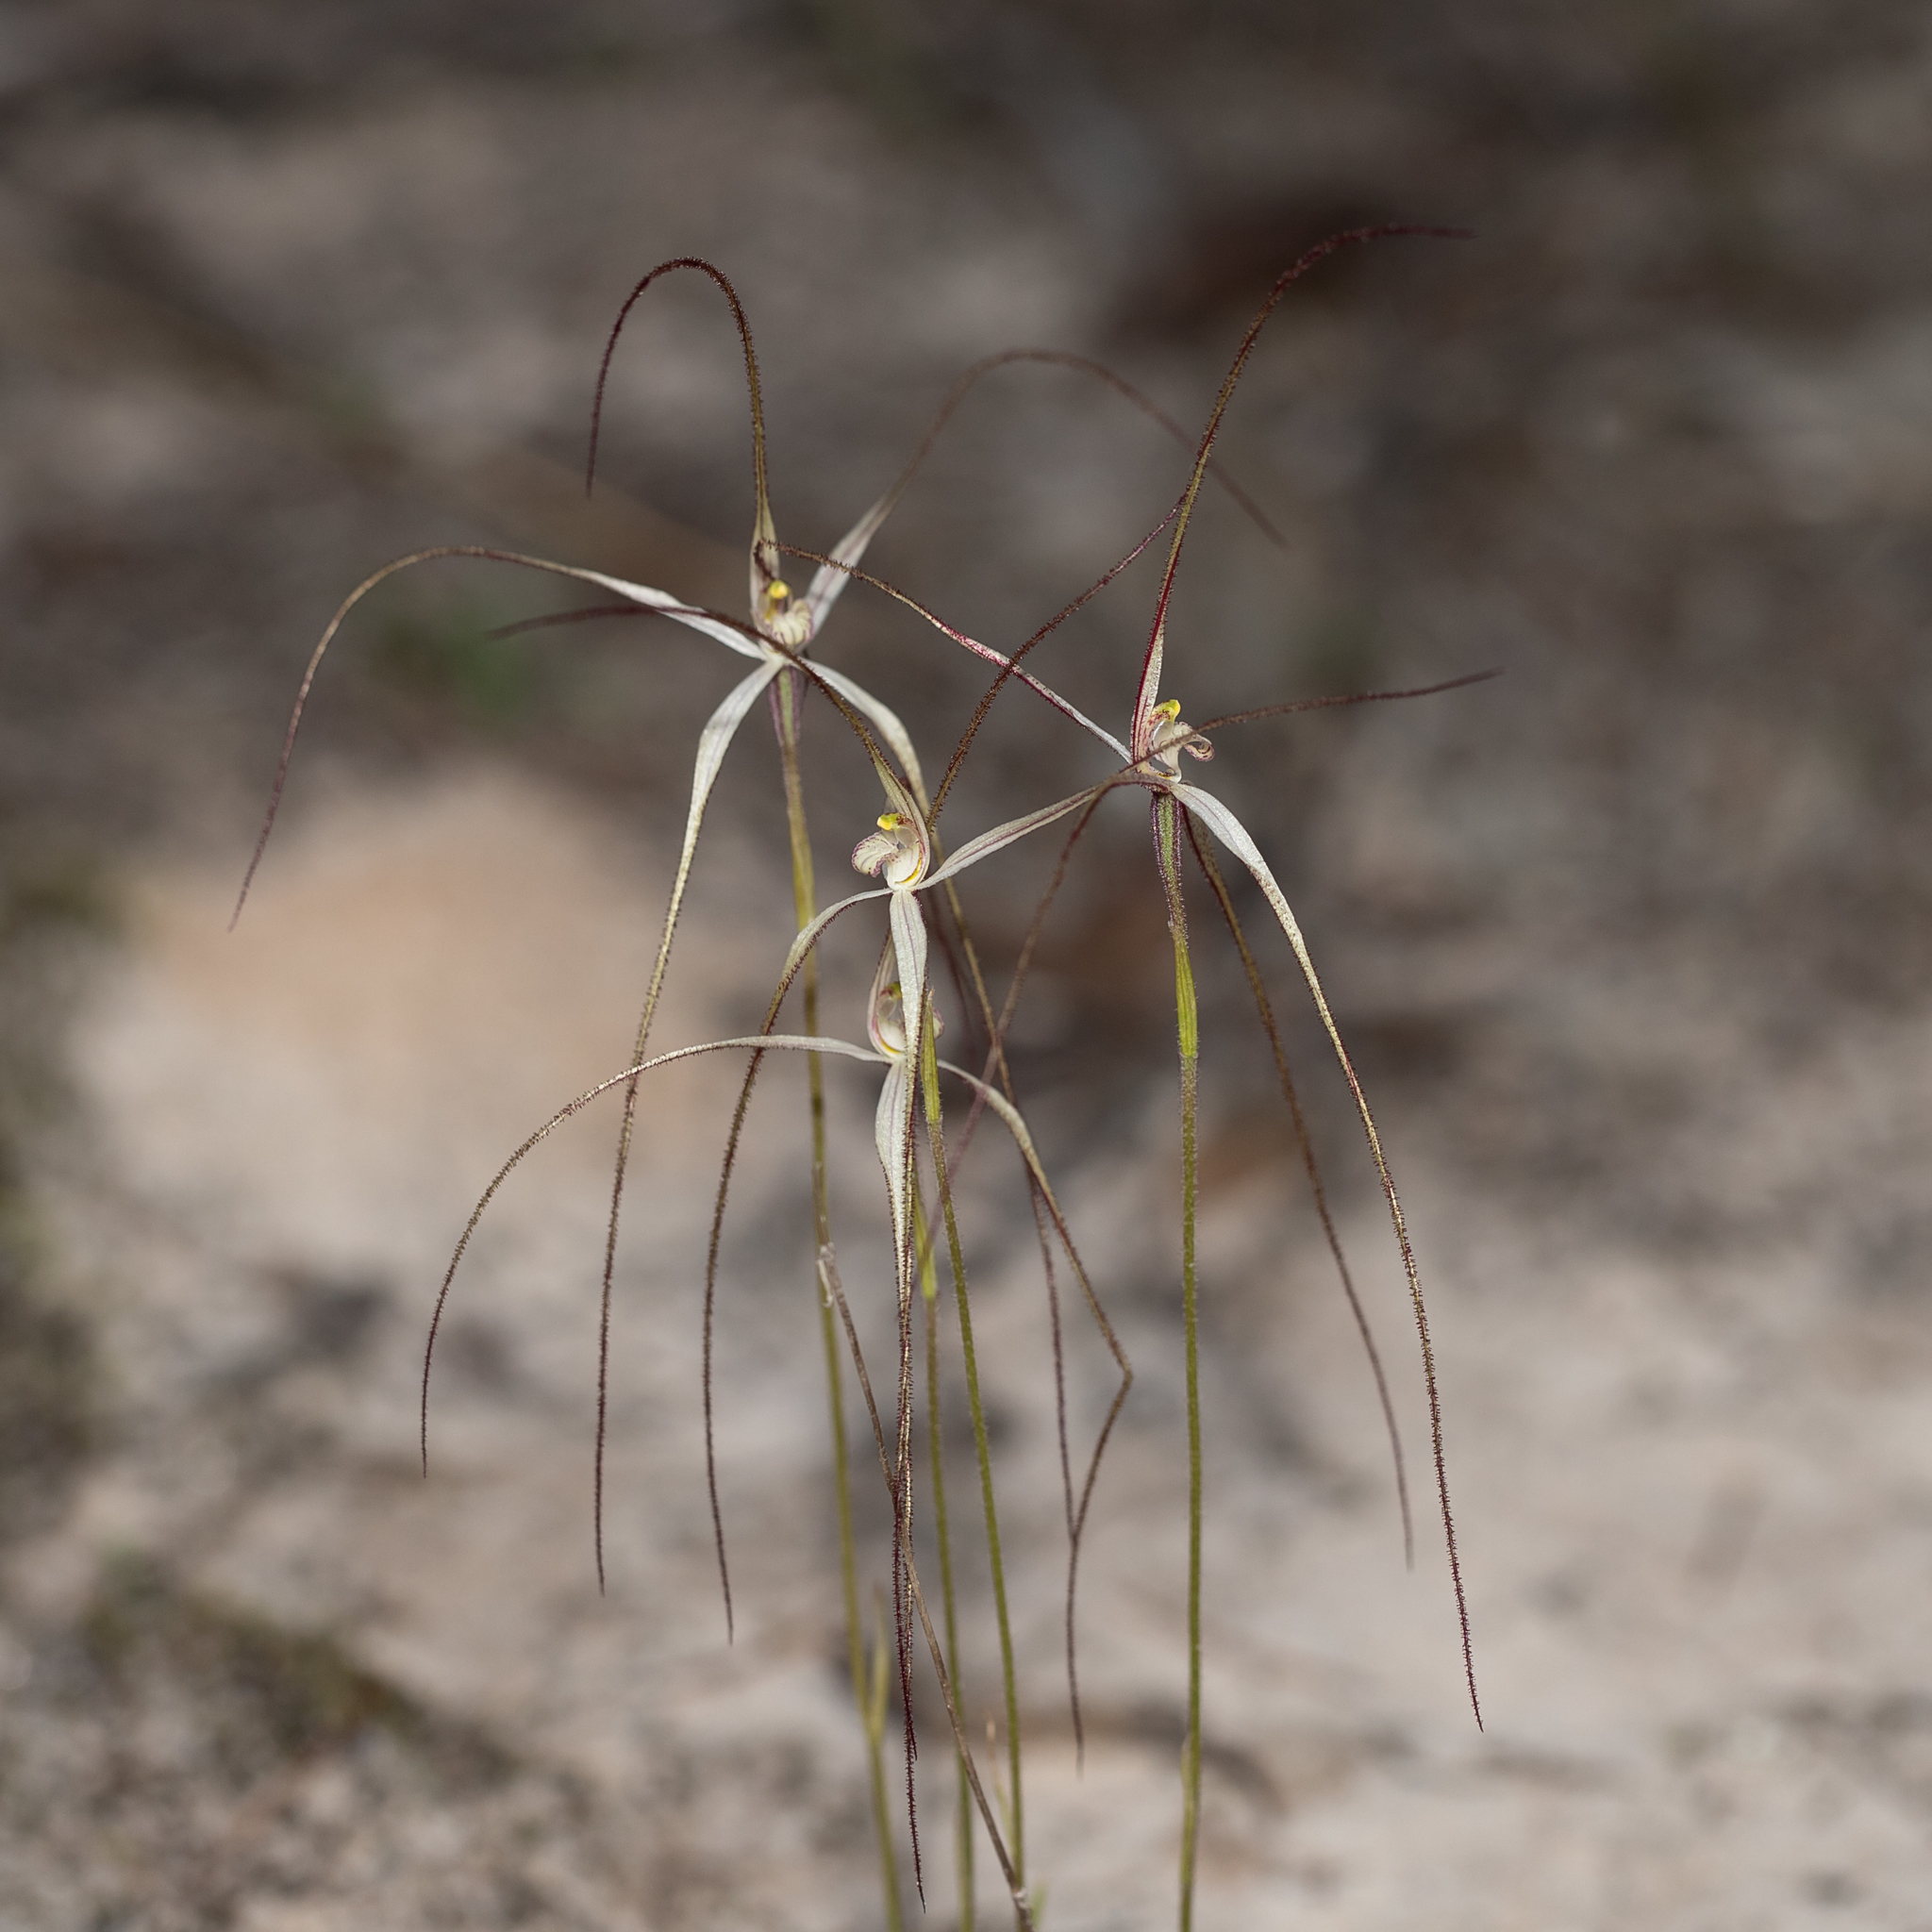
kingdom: Plantae
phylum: Tracheophyta
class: Liliopsida
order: Asparagales
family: Orchidaceae
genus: Caladenia
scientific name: Caladenia capillata
